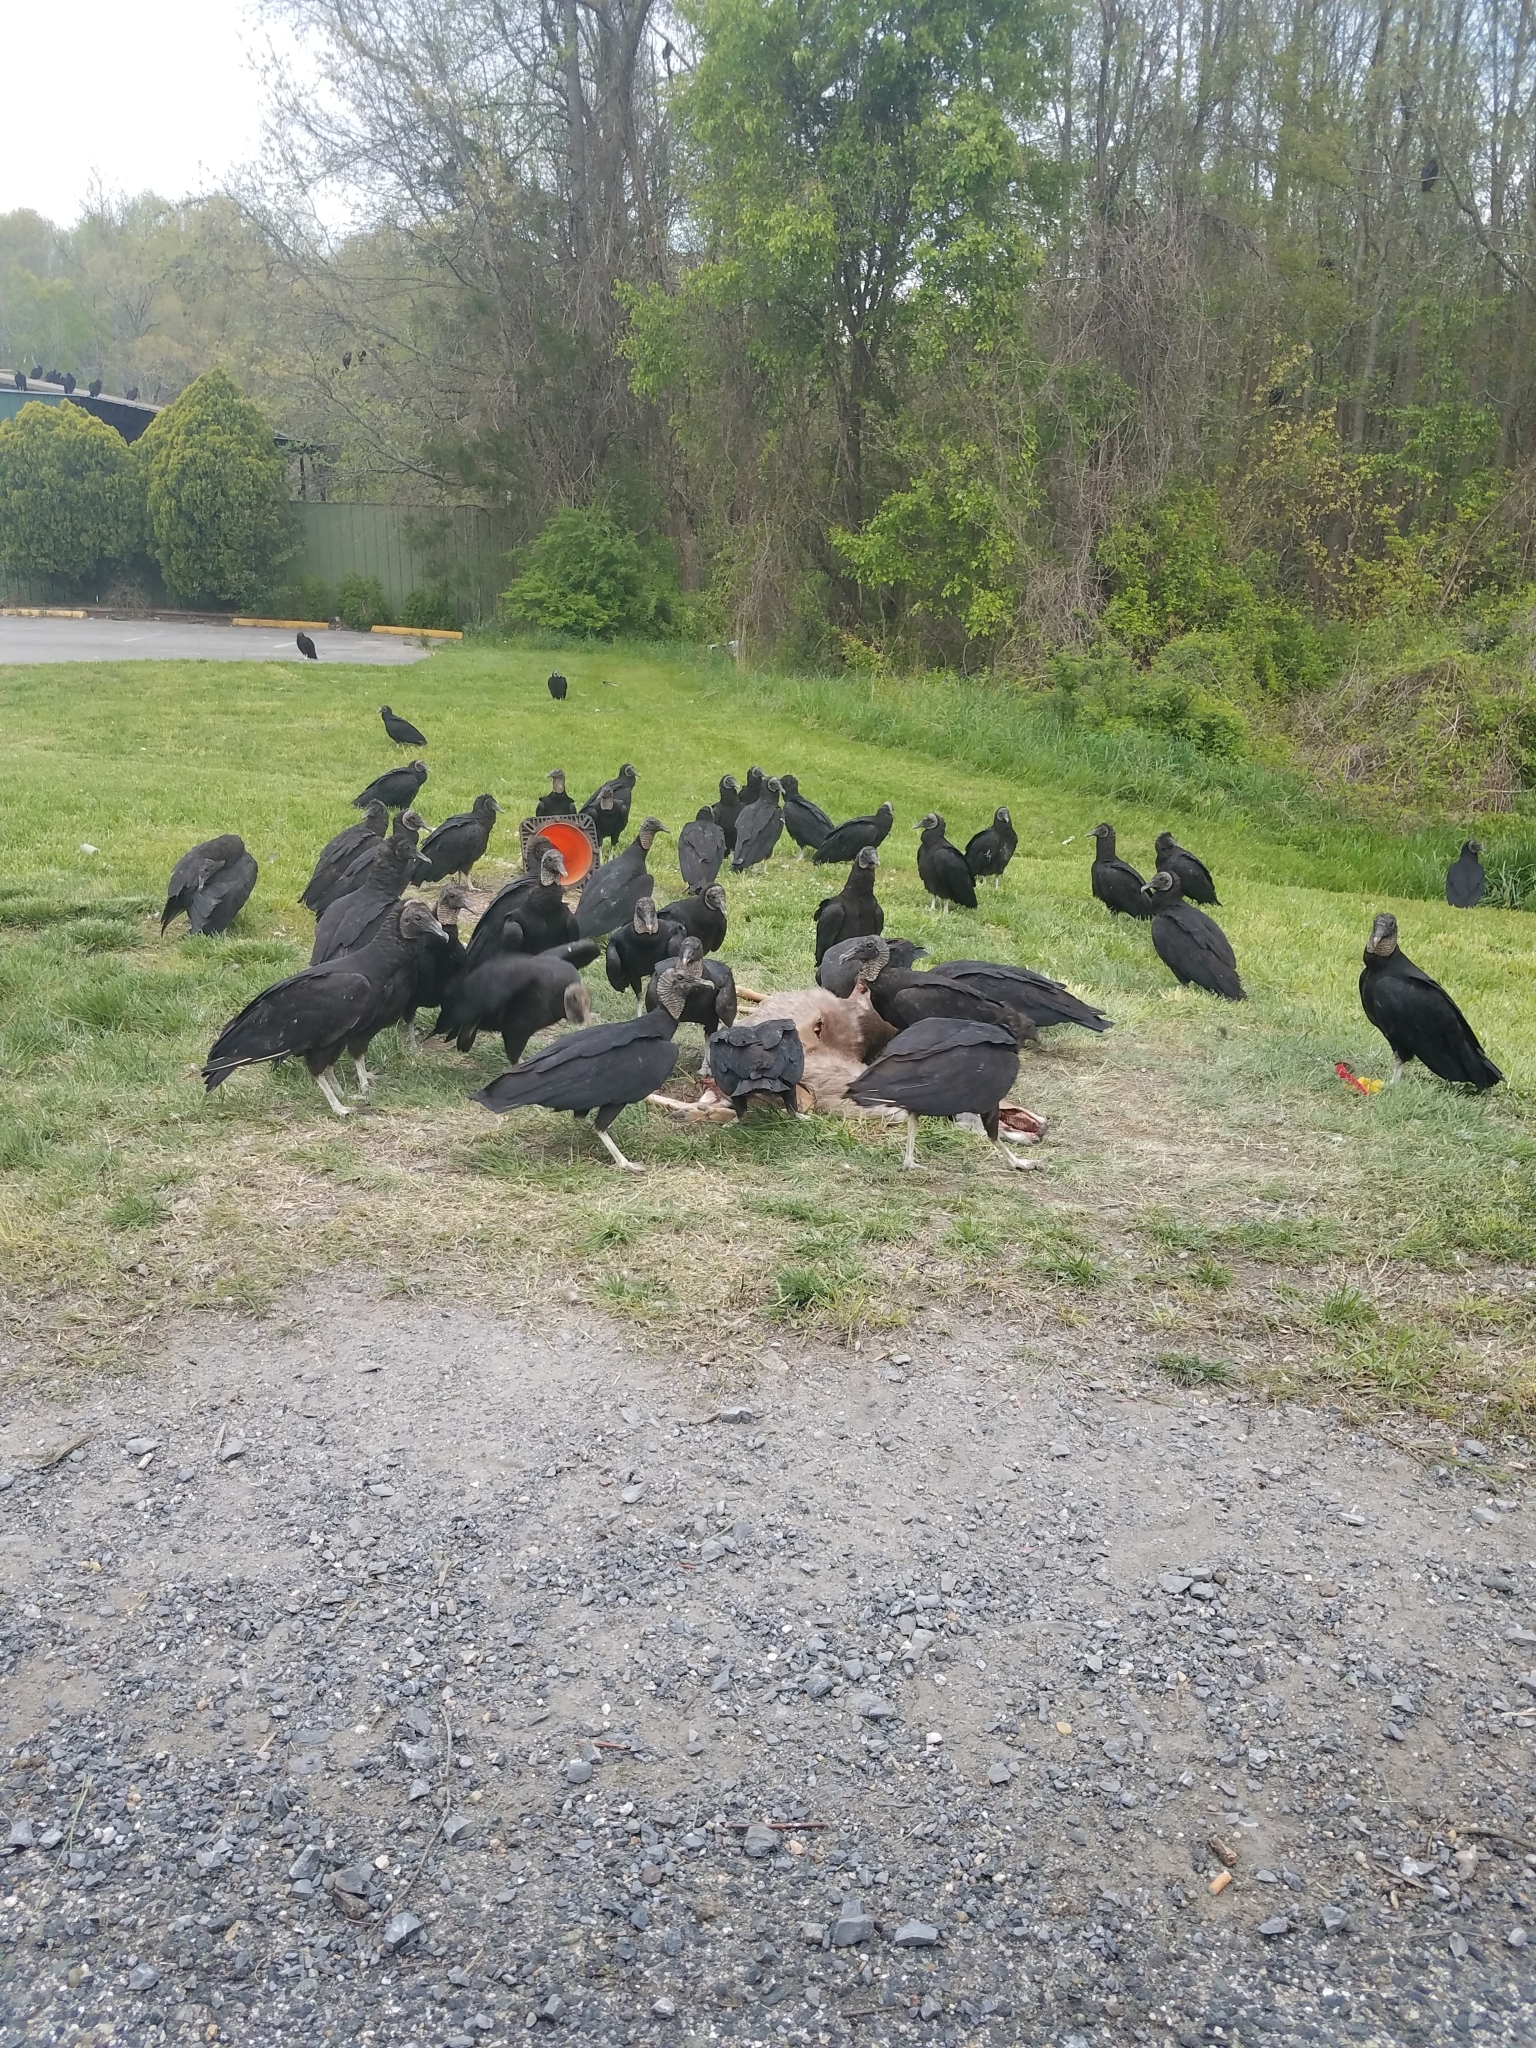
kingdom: Animalia
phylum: Chordata
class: Aves
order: Accipitriformes
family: Cathartidae
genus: Coragyps
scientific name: Coragyps atratus
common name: Black vulture
